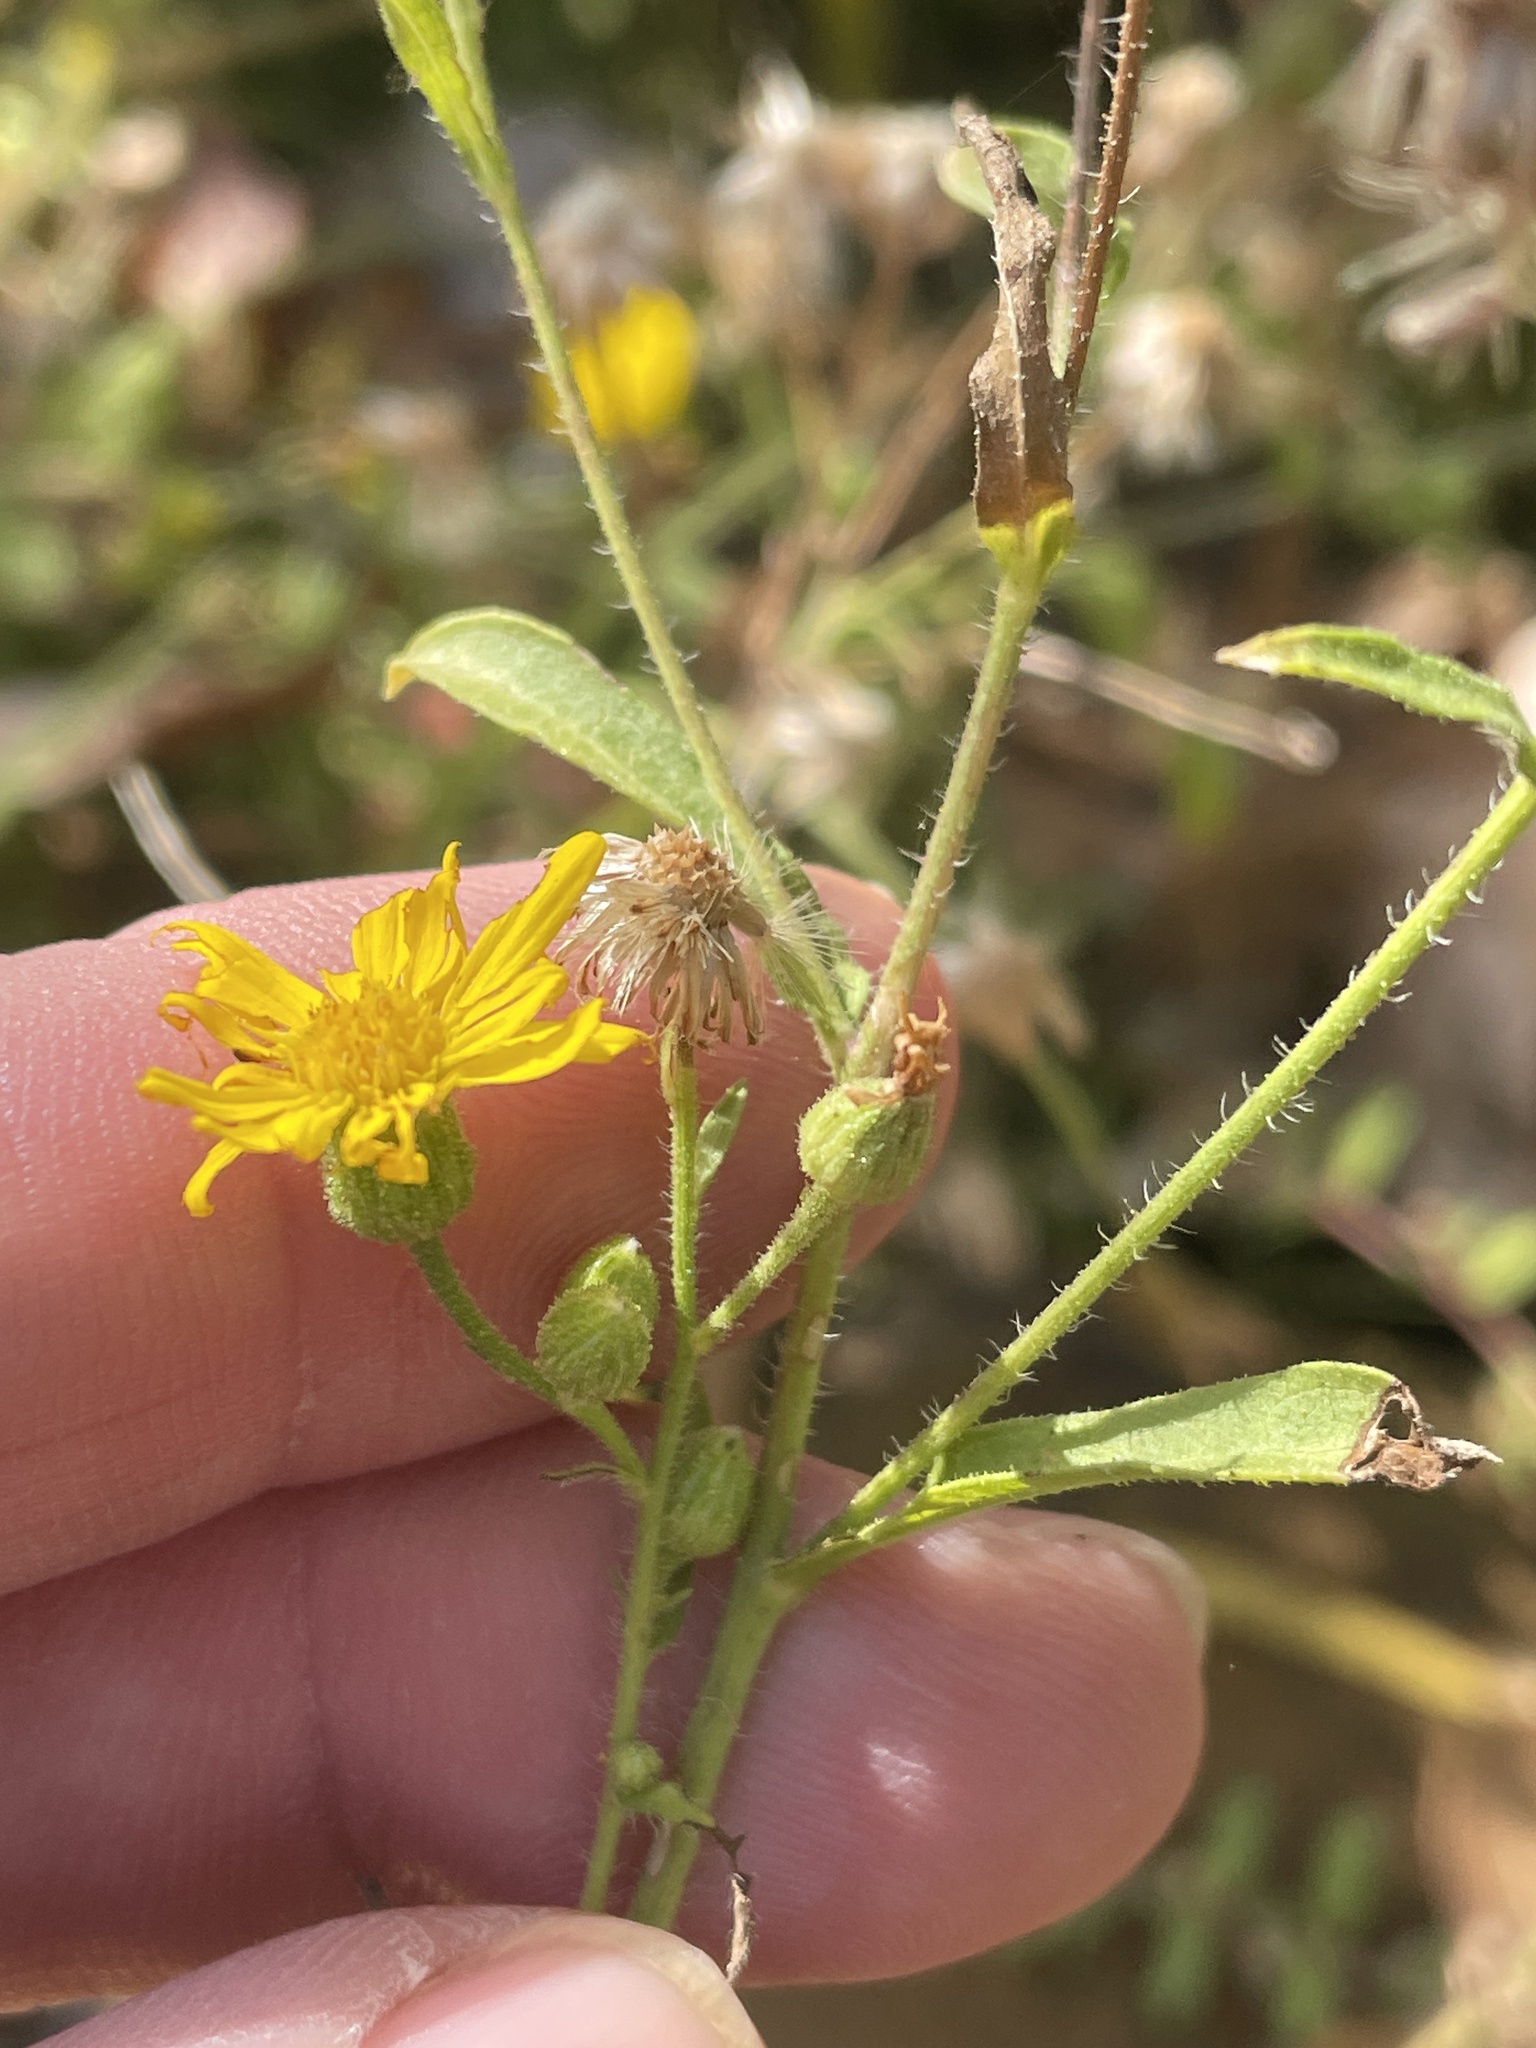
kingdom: Plantae
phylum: Tracheophyta
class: Magnoliopsida
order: Asterales
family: Asteraceae
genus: Heterotheca
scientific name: Heterotheca subaxillaris
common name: Camphorweed
